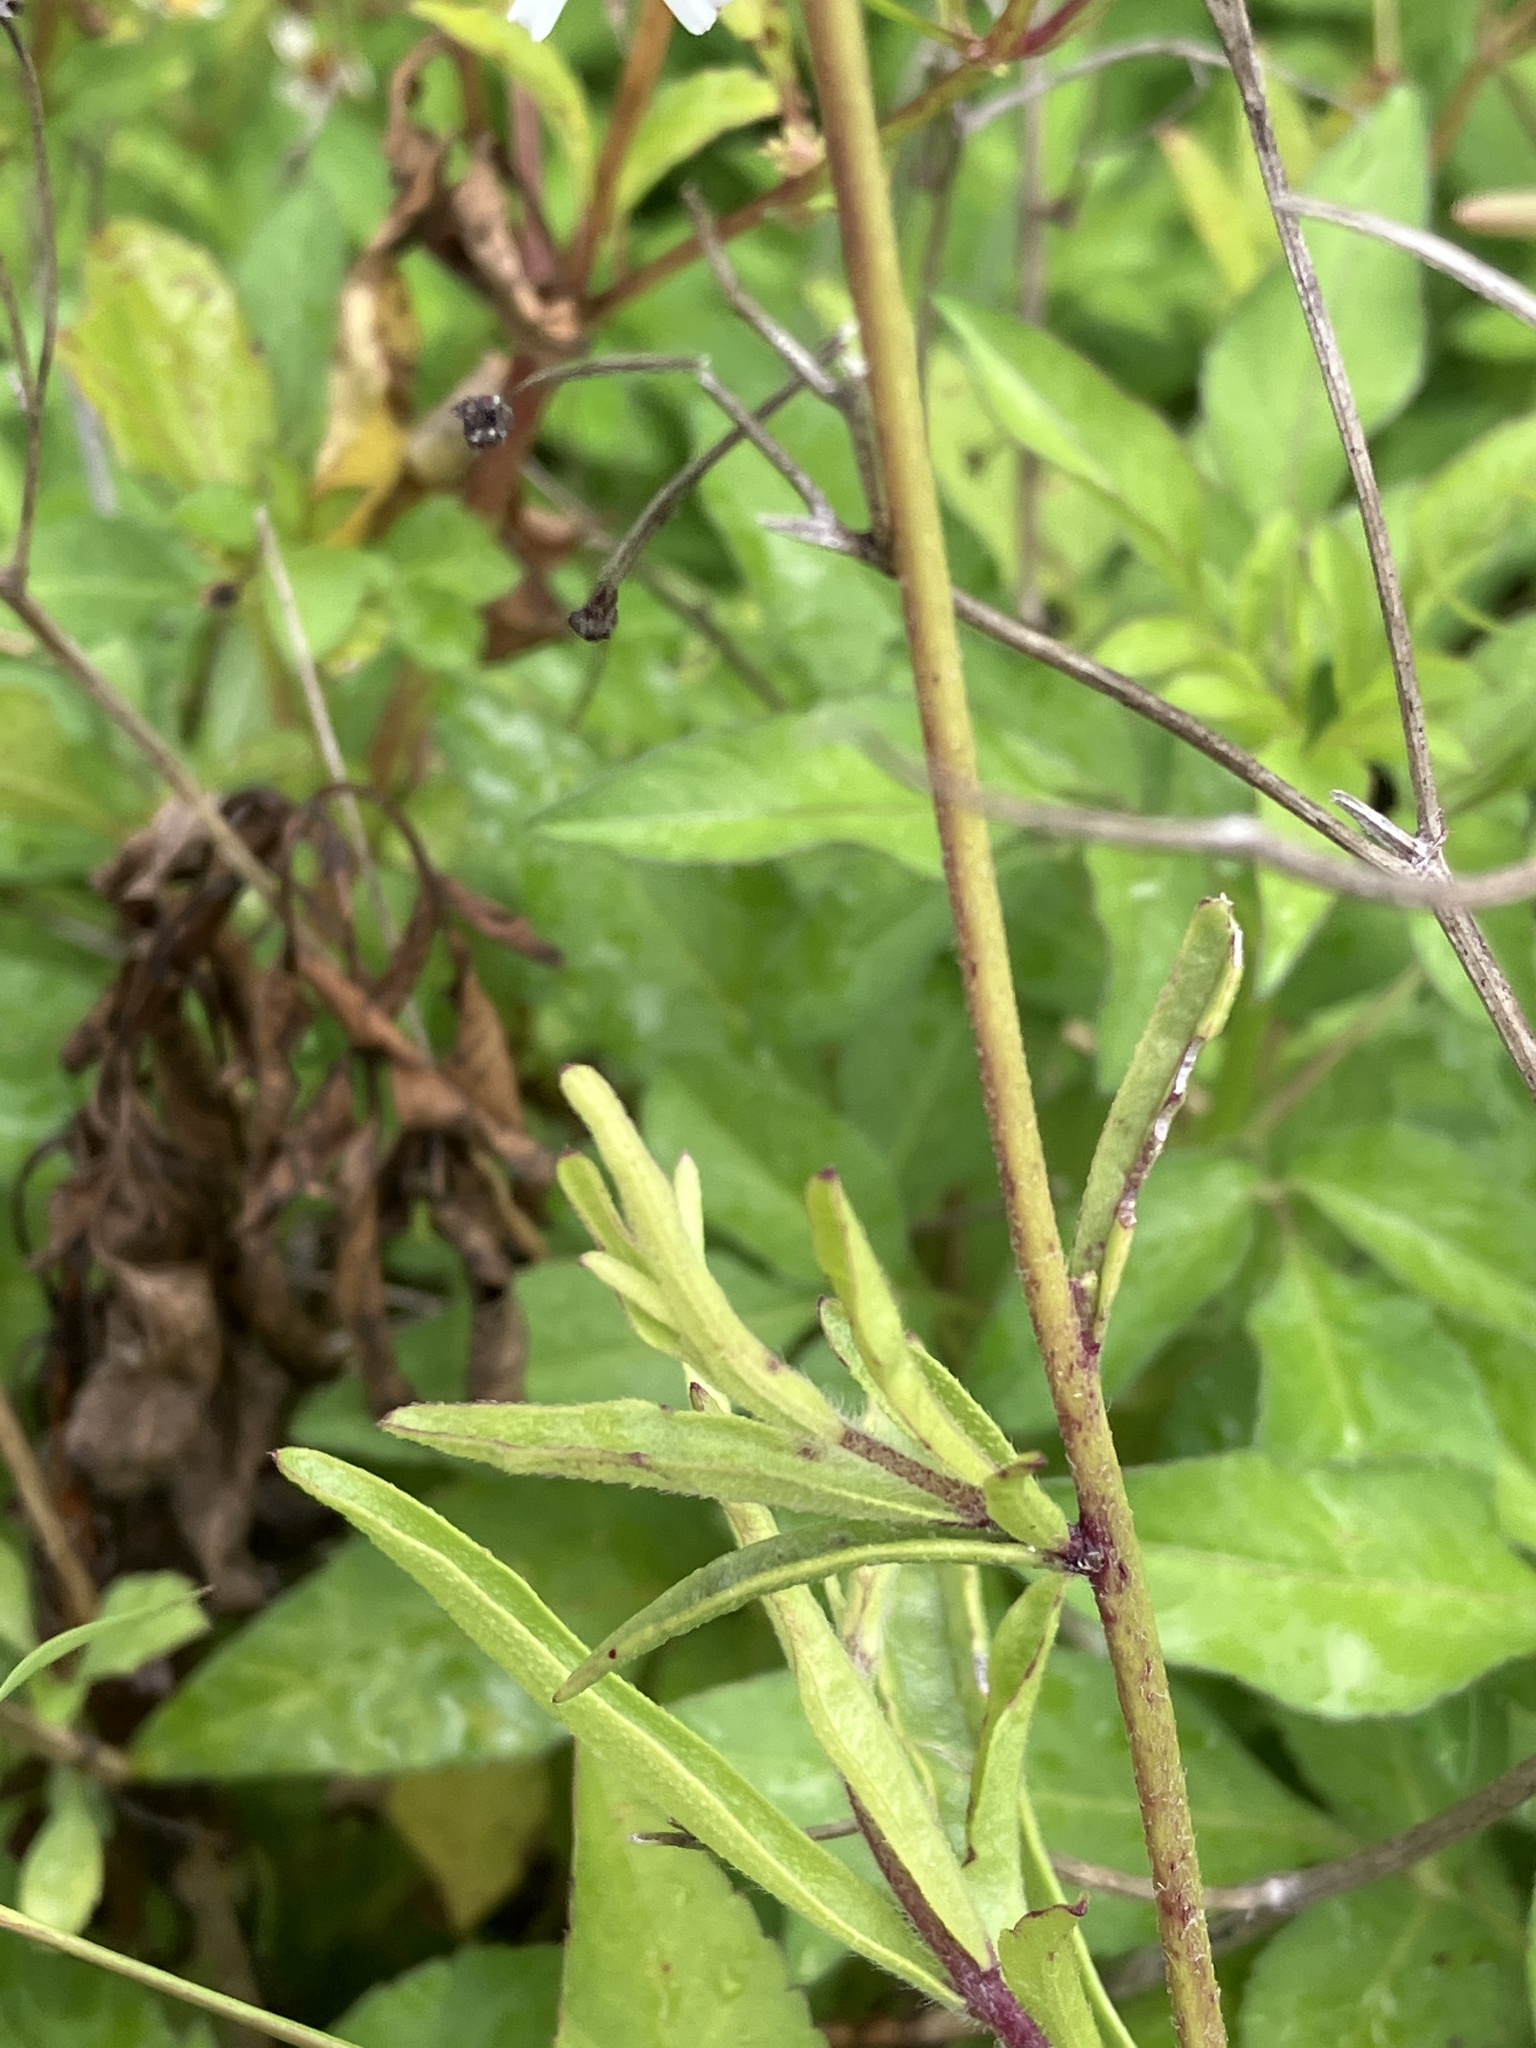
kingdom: Plantae
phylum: Tracheophyta
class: Magnoliopsida
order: Lamiales
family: Orobanchaceae
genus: Buchnera
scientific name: Buchnera hispida
